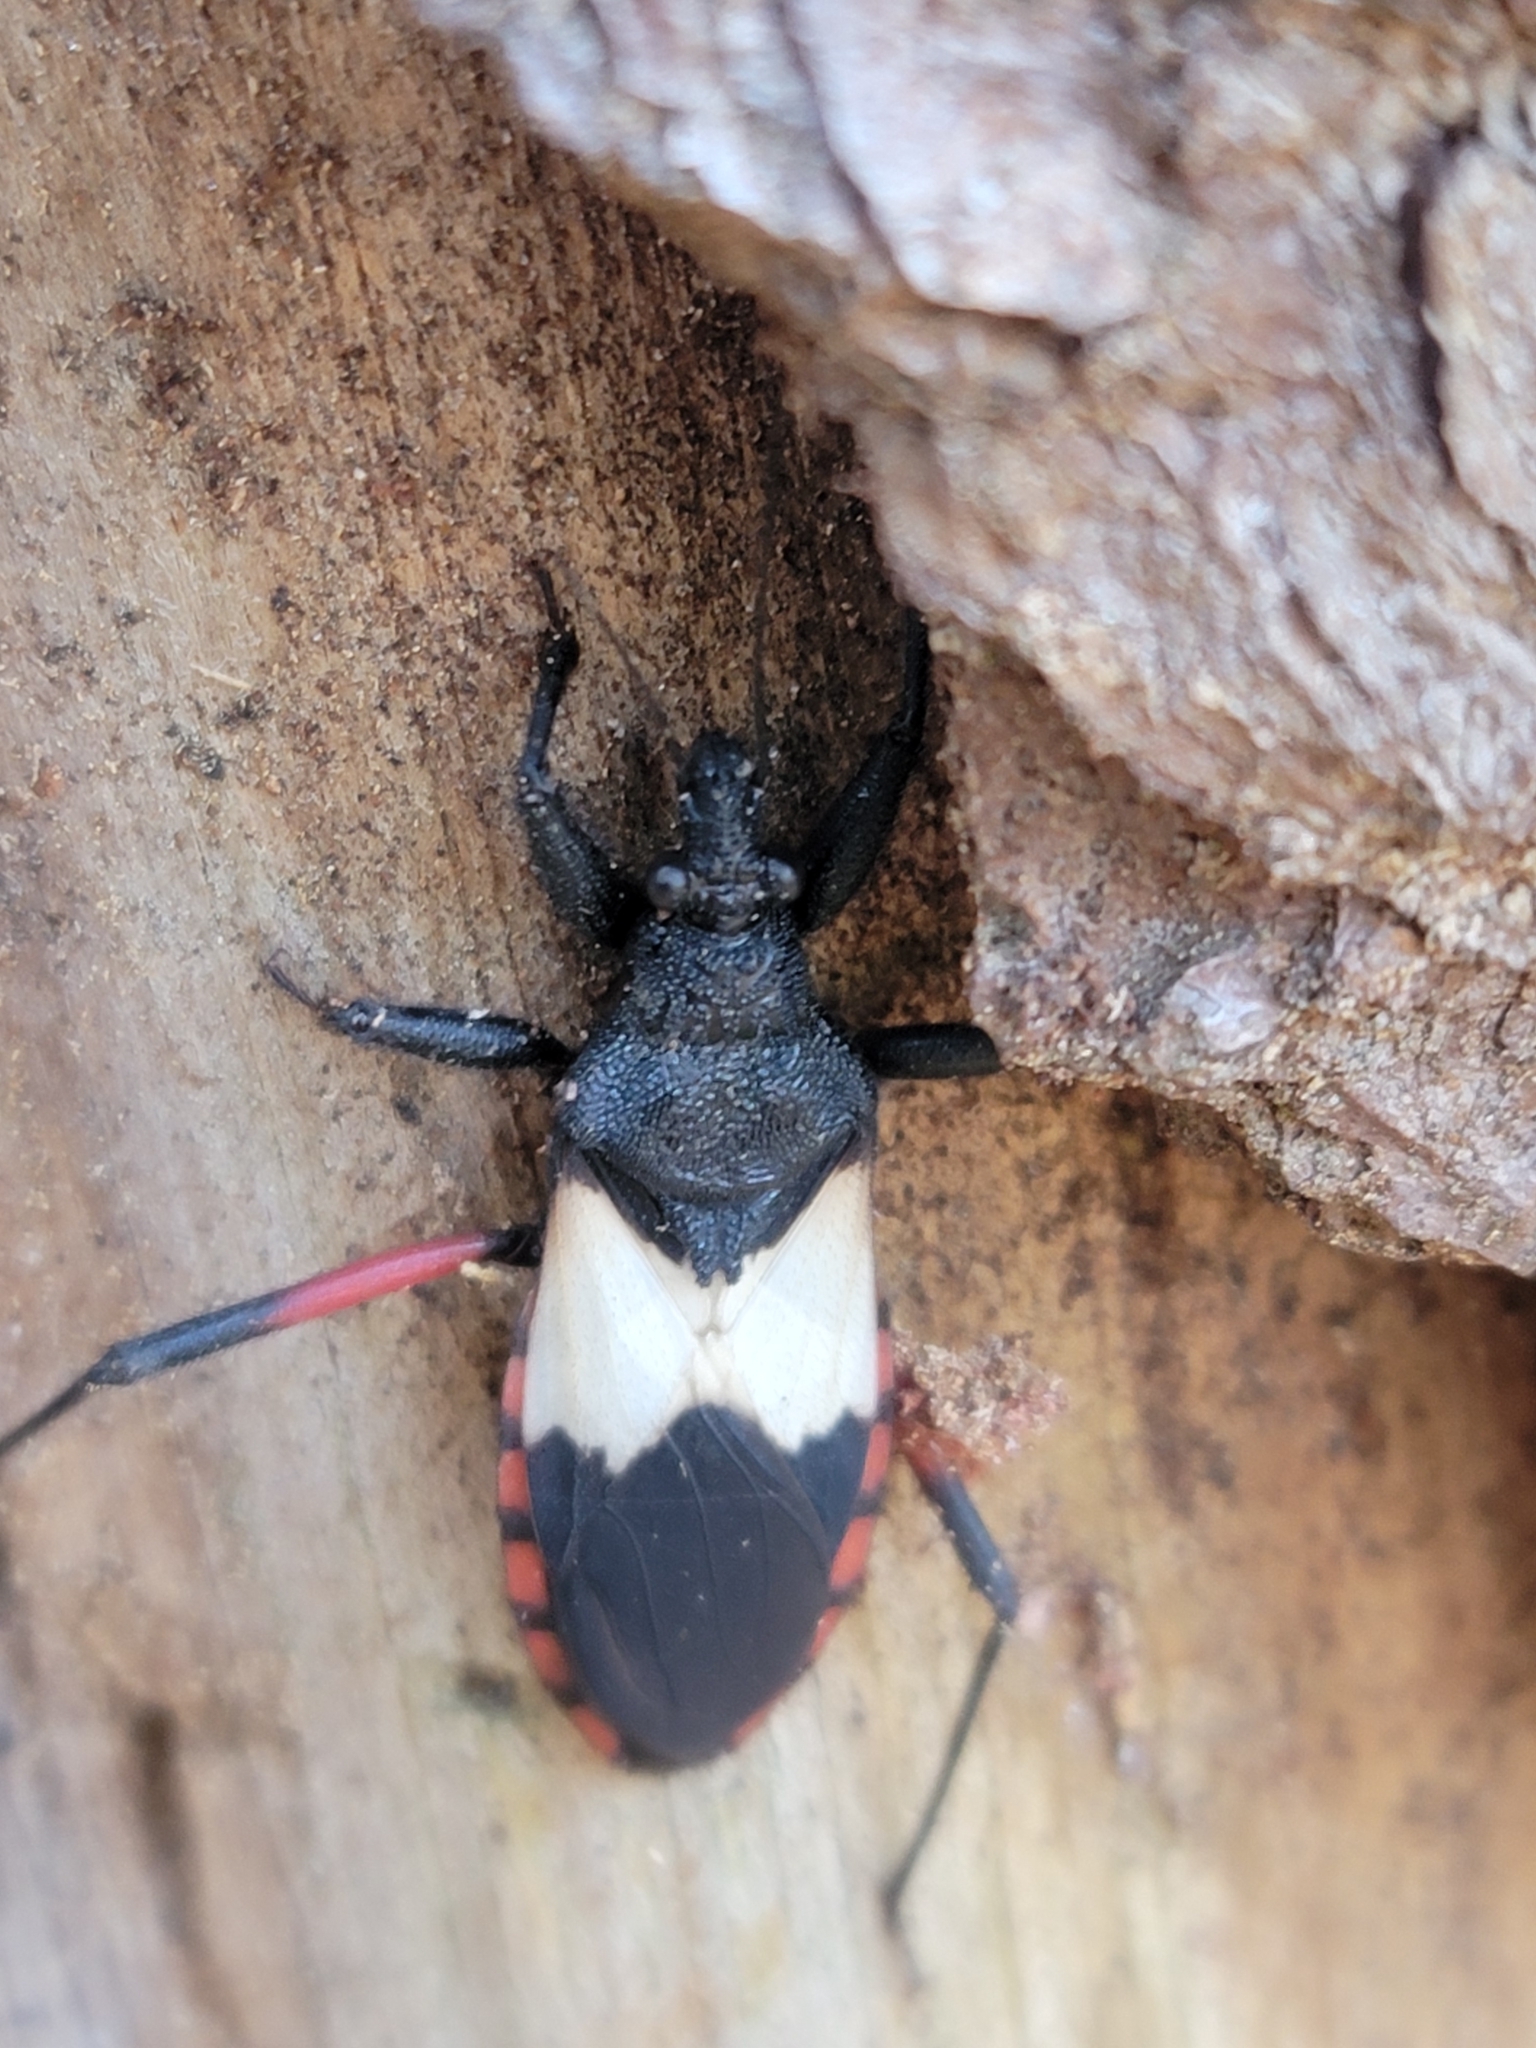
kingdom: Animalia
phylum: Arthropoda
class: Insecta
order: Hemiptera
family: Reduviidae
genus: Microtomus
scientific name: Microtomus purcis
